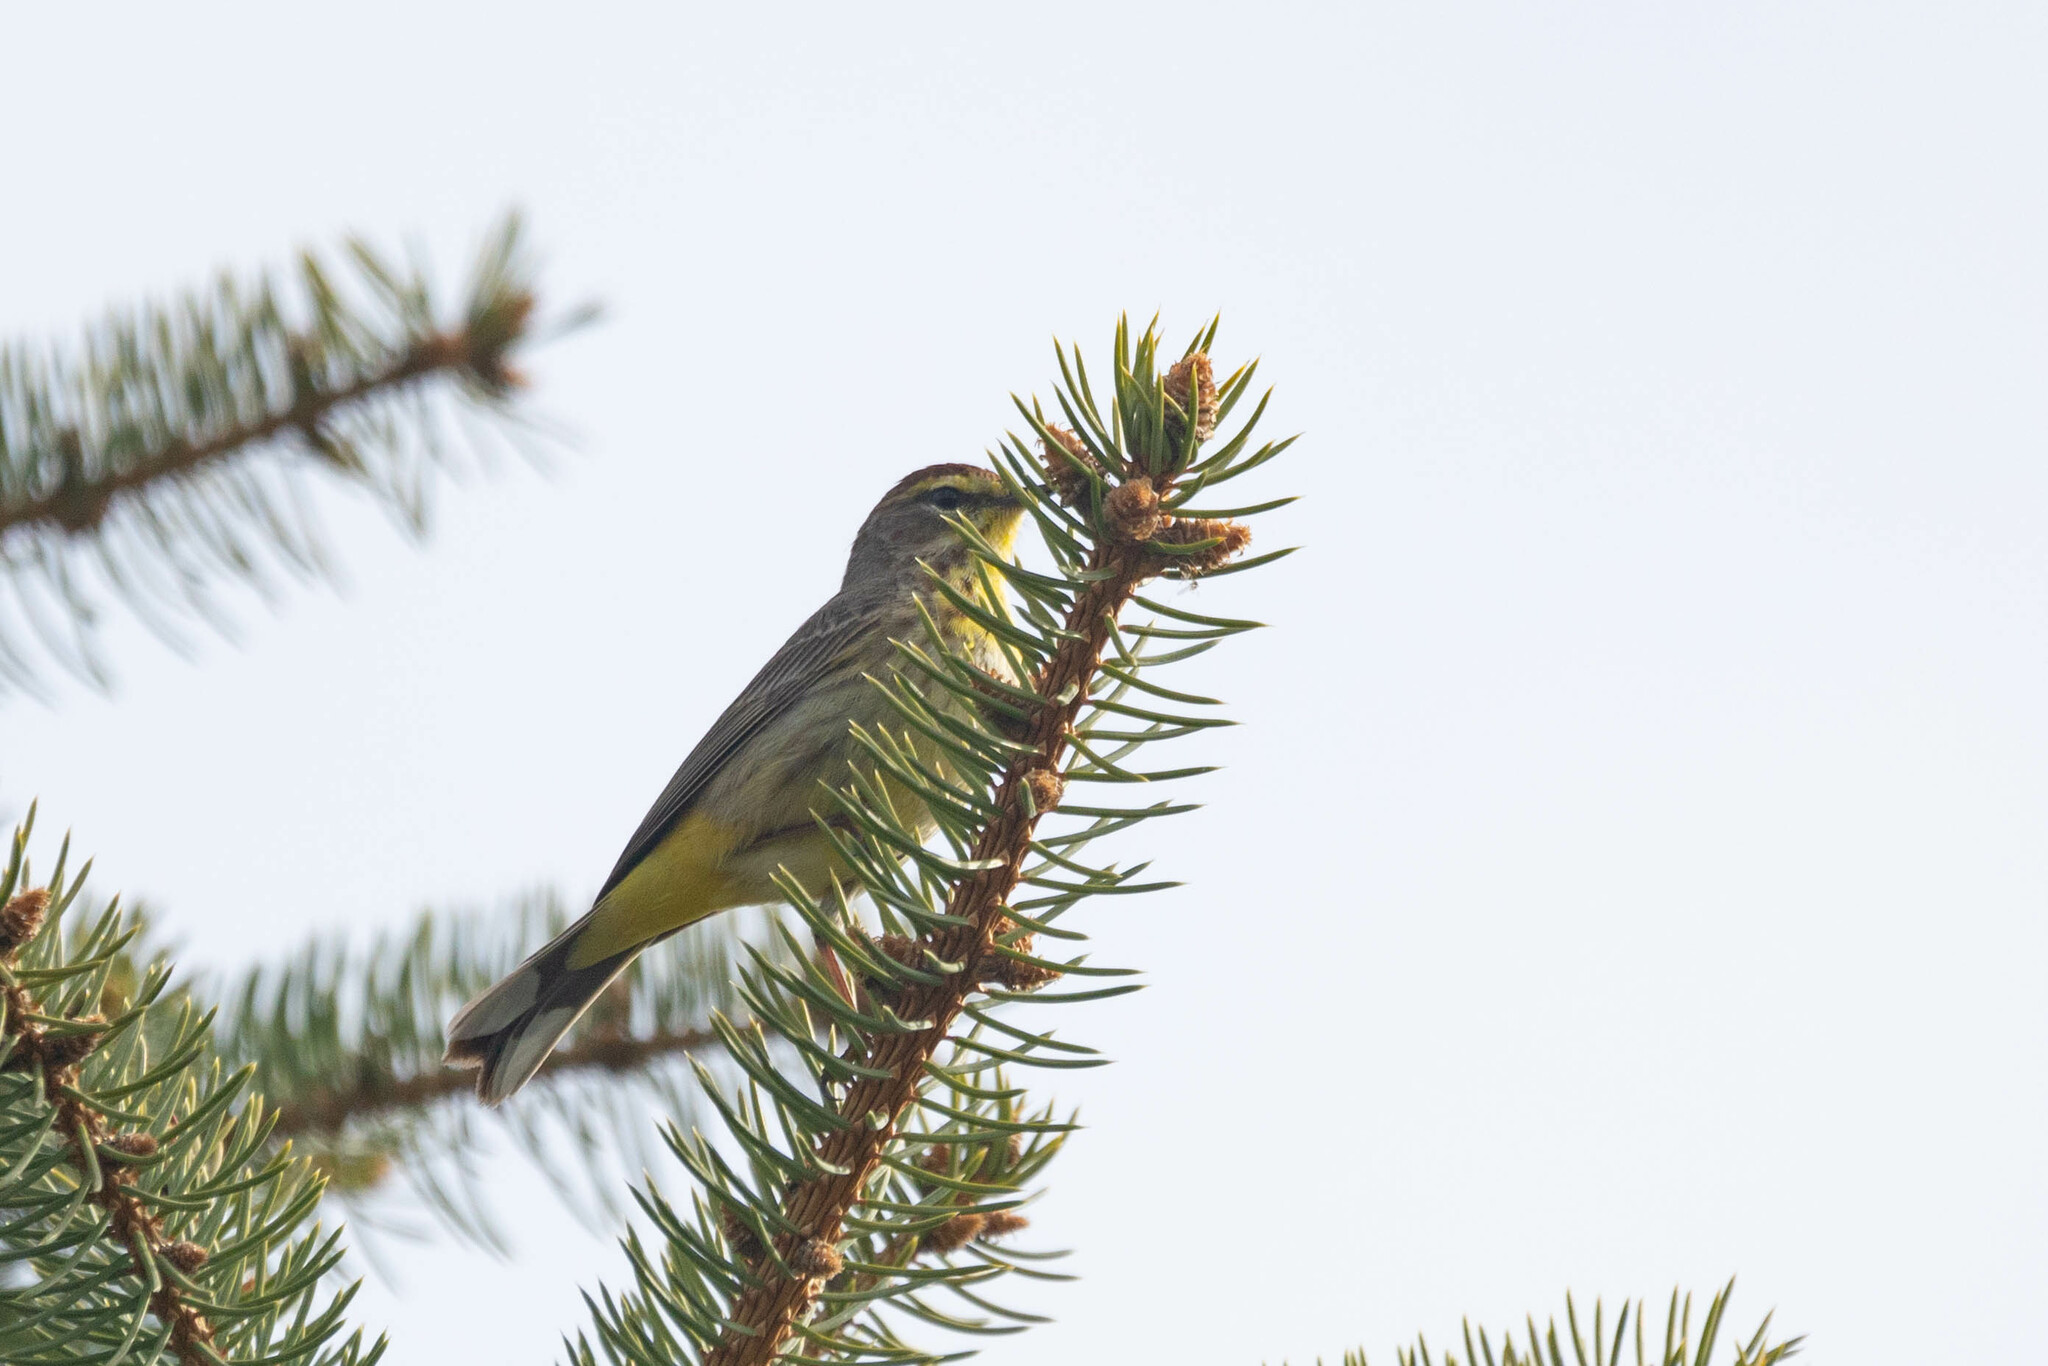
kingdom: Animalia
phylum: Chordata
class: Aves
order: Passeriformes
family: Parulidae
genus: Setophaga
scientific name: Setophaga palmarum
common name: Palm warbler
